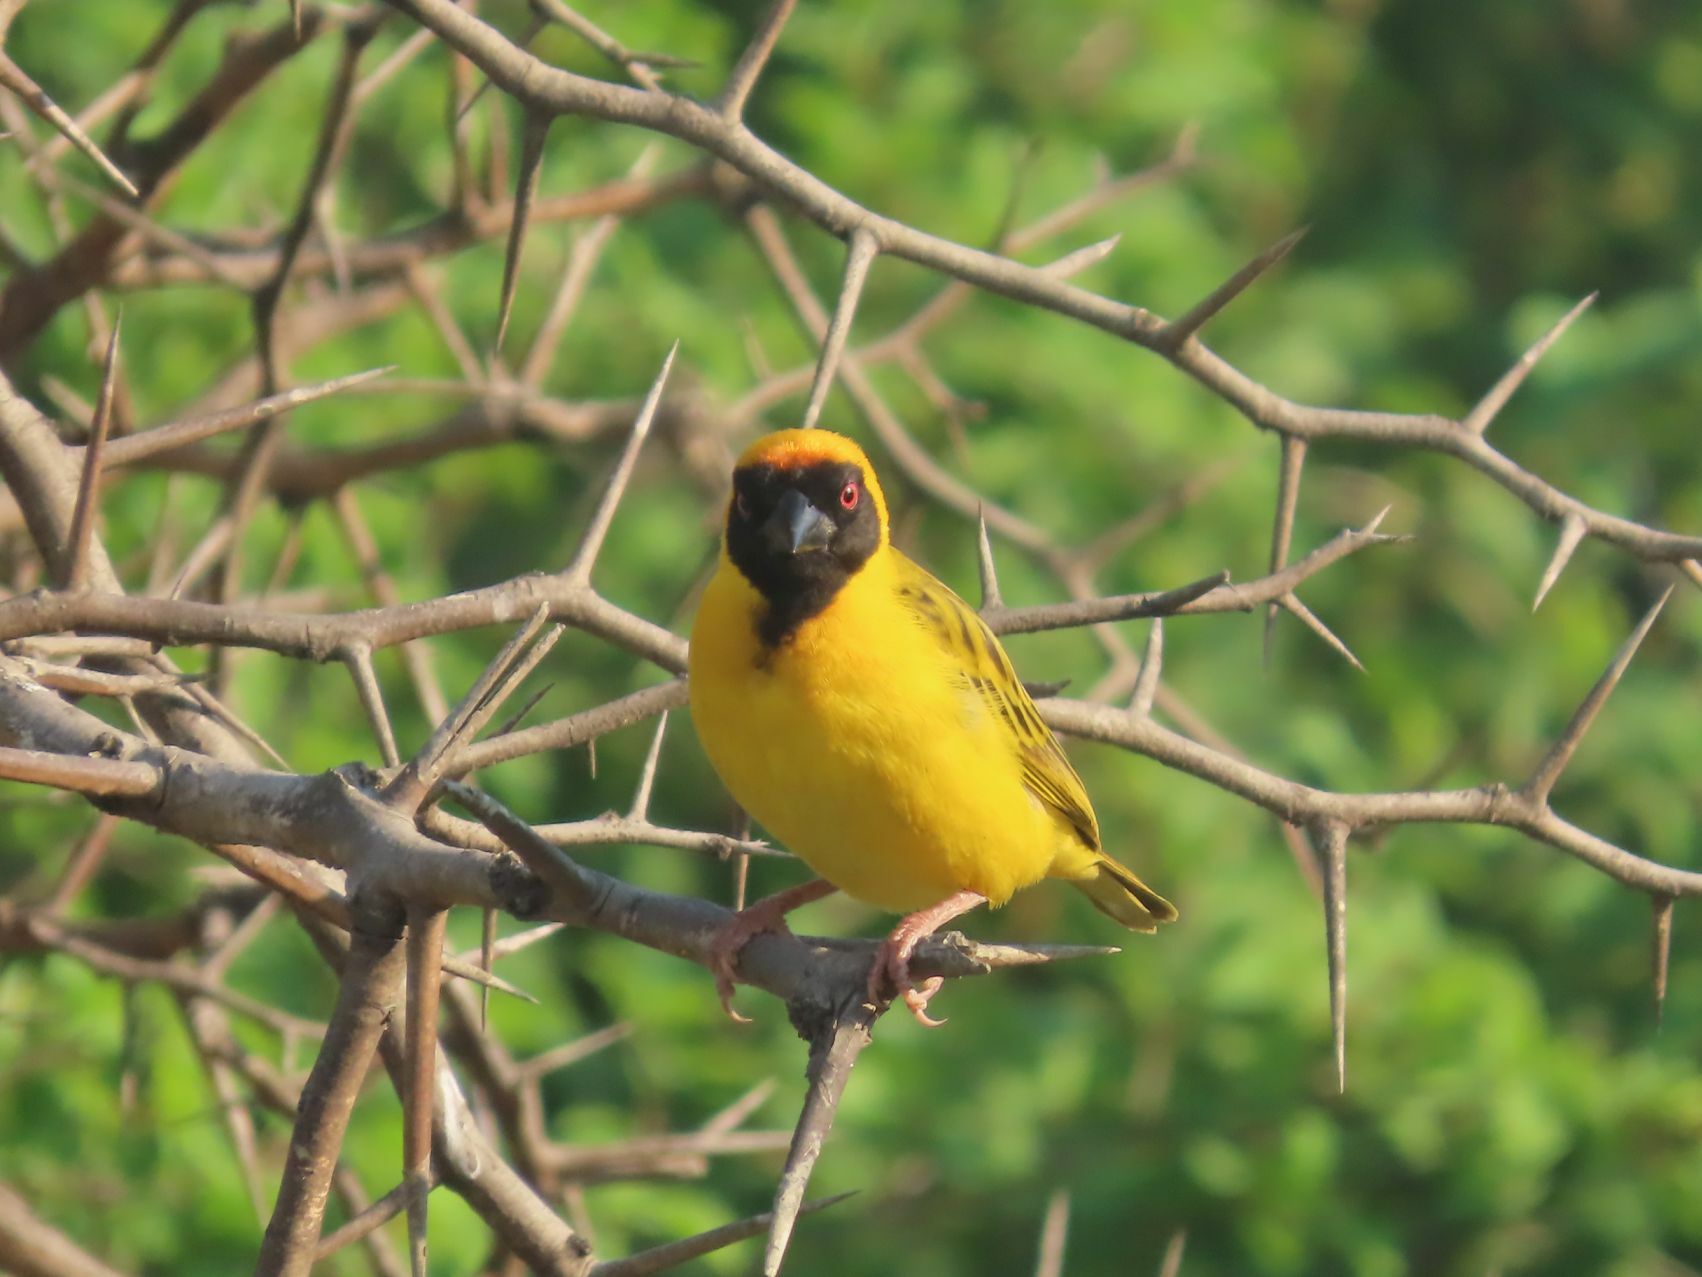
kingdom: Animalia
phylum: Chordata
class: Aves
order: Passeriformes
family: Ploceidae
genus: Ploceus
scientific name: Ploceus velatus
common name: Southern masked weaver
